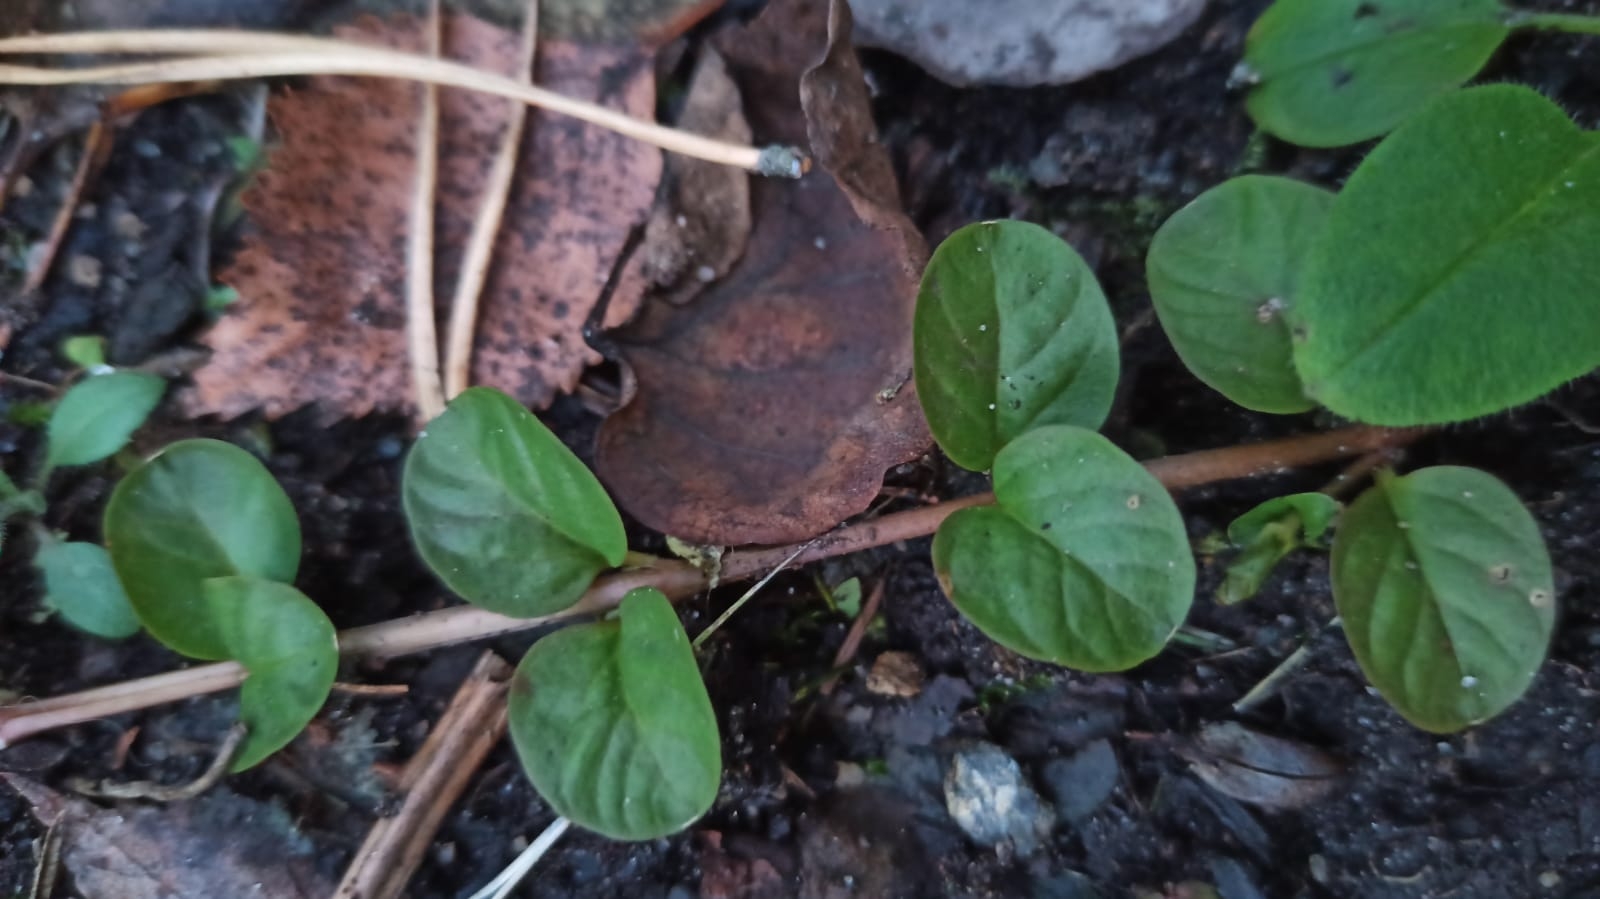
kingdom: Plantae
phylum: Tracheophyta
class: Magnoliopsida
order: Ericales
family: Primulaceae
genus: Lysimachia
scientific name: Lysimachia nummularia
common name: Moneywort
